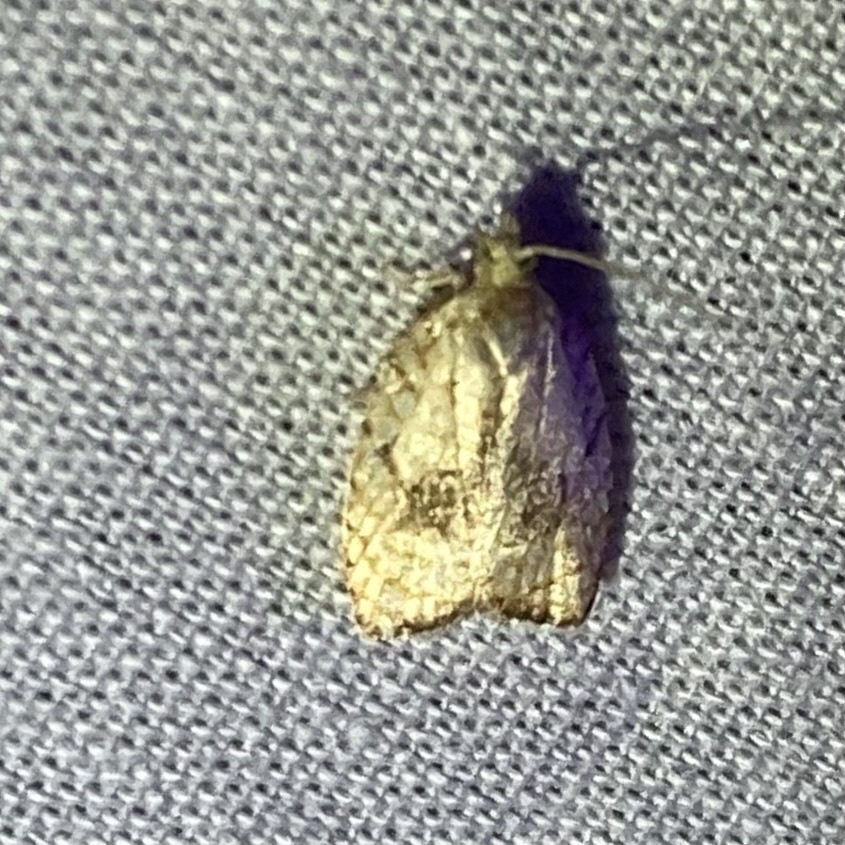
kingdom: Animalia
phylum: Arthropoda
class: Insecta
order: Lepidoptera
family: Tortricidae
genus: Acleris
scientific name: Acleris forsskaleana
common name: Maple button
